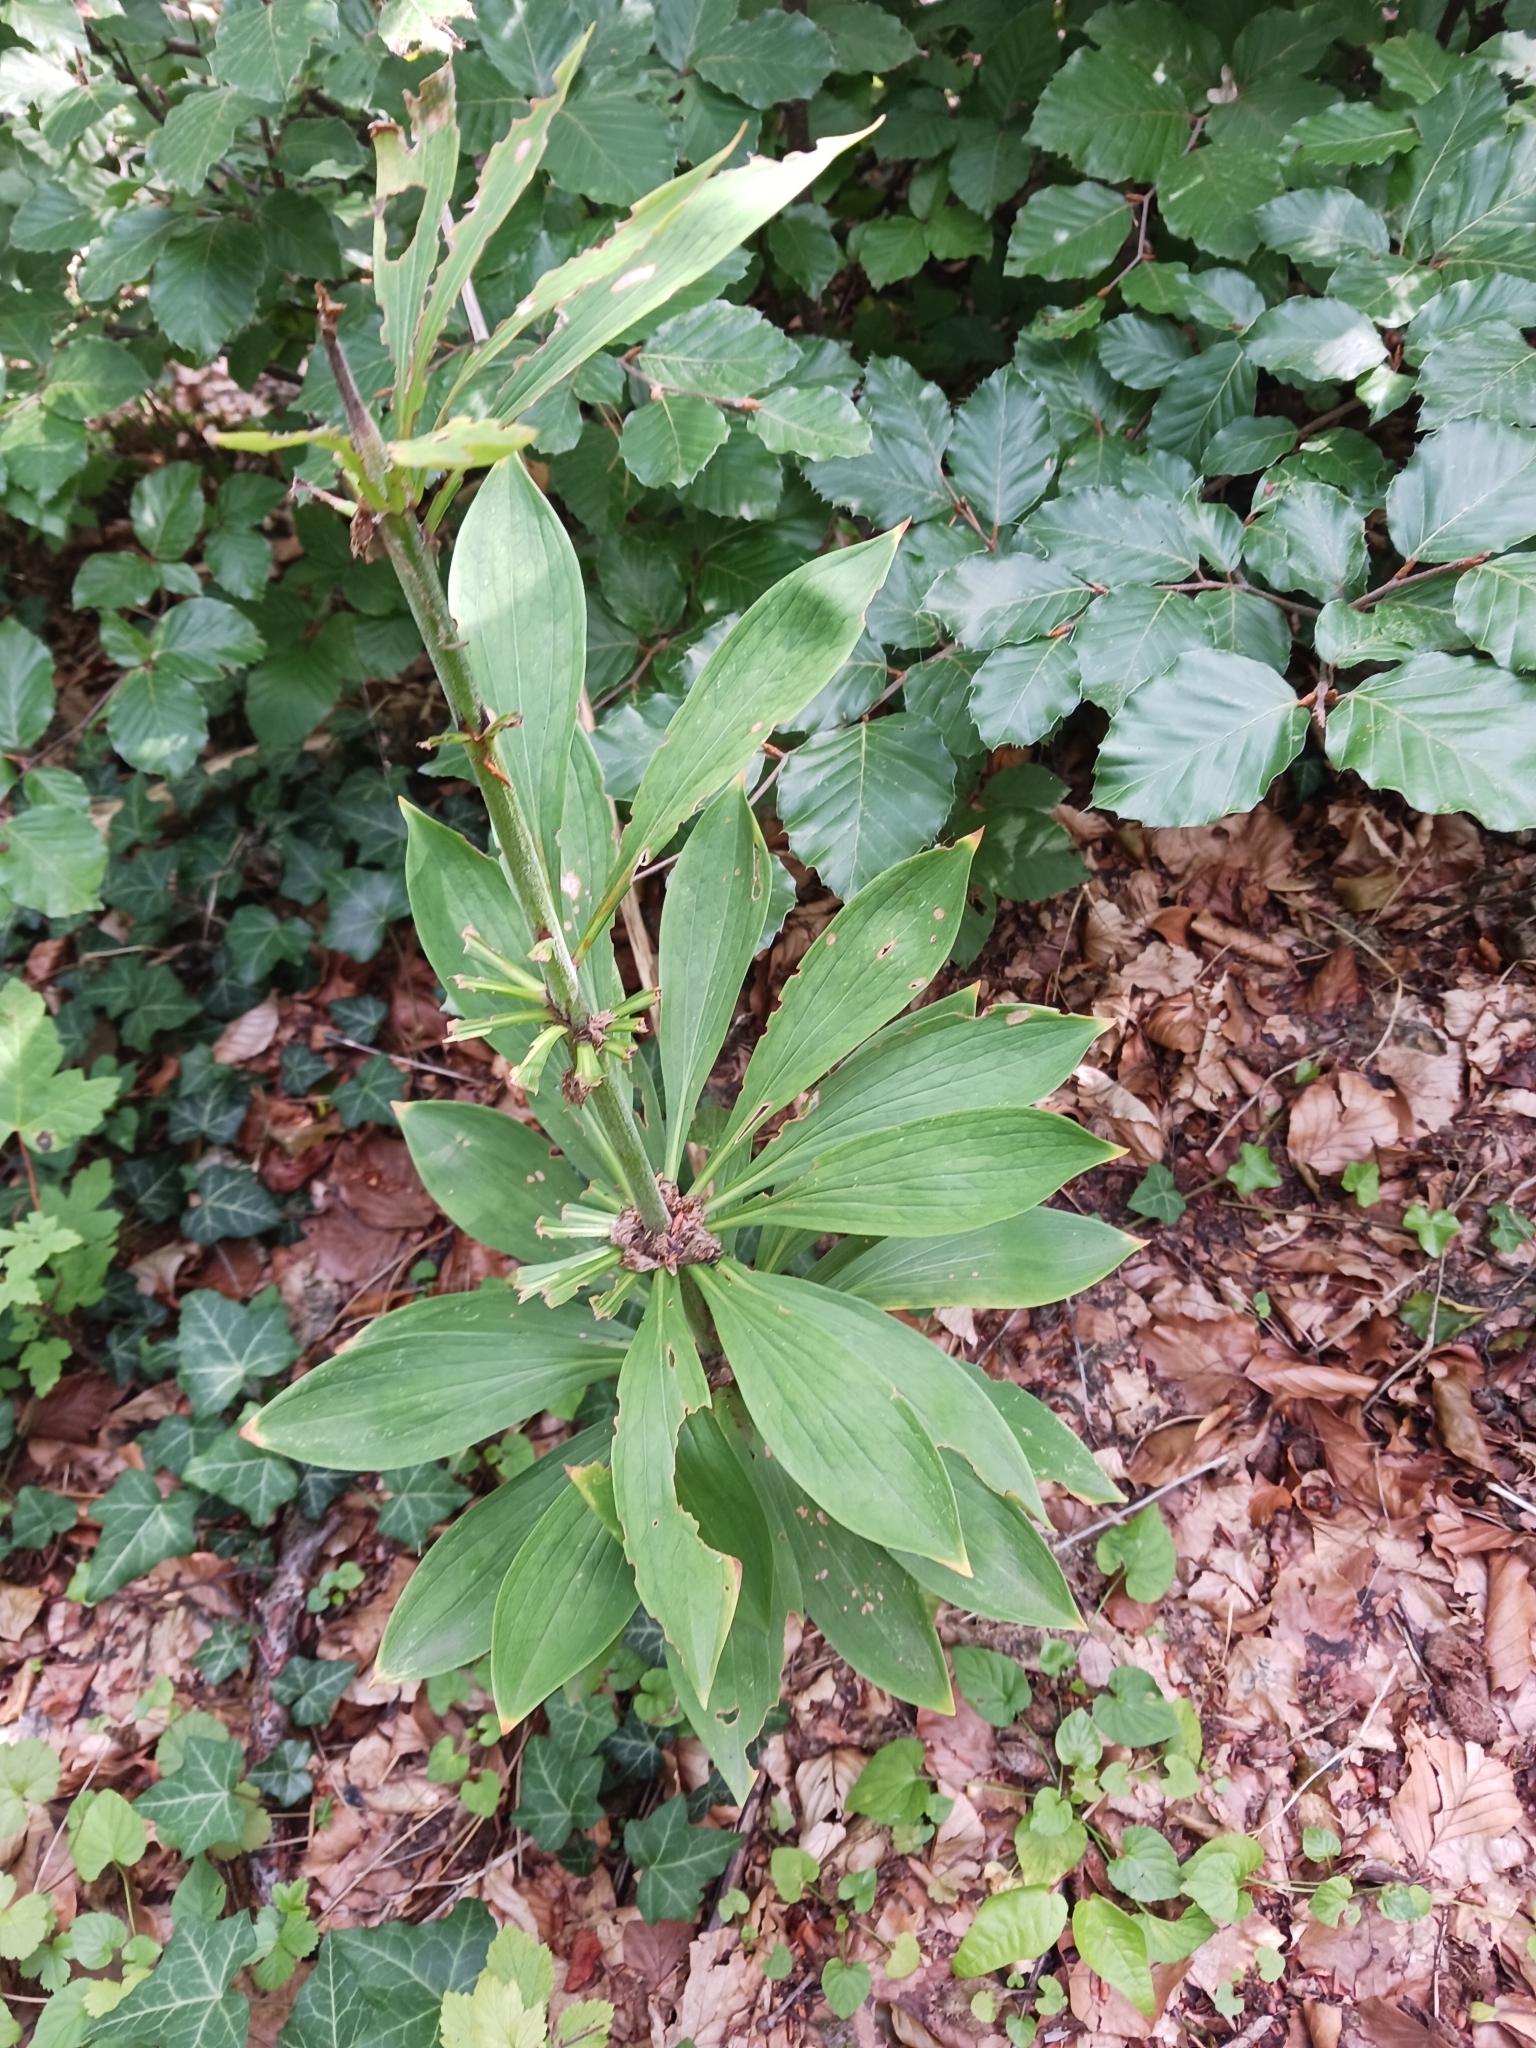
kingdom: Plantae
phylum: Tracheophyta
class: Liliopsida
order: Liliales
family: Liliaceae
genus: Lilium
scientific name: Lilium martagon
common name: Martagon lily
